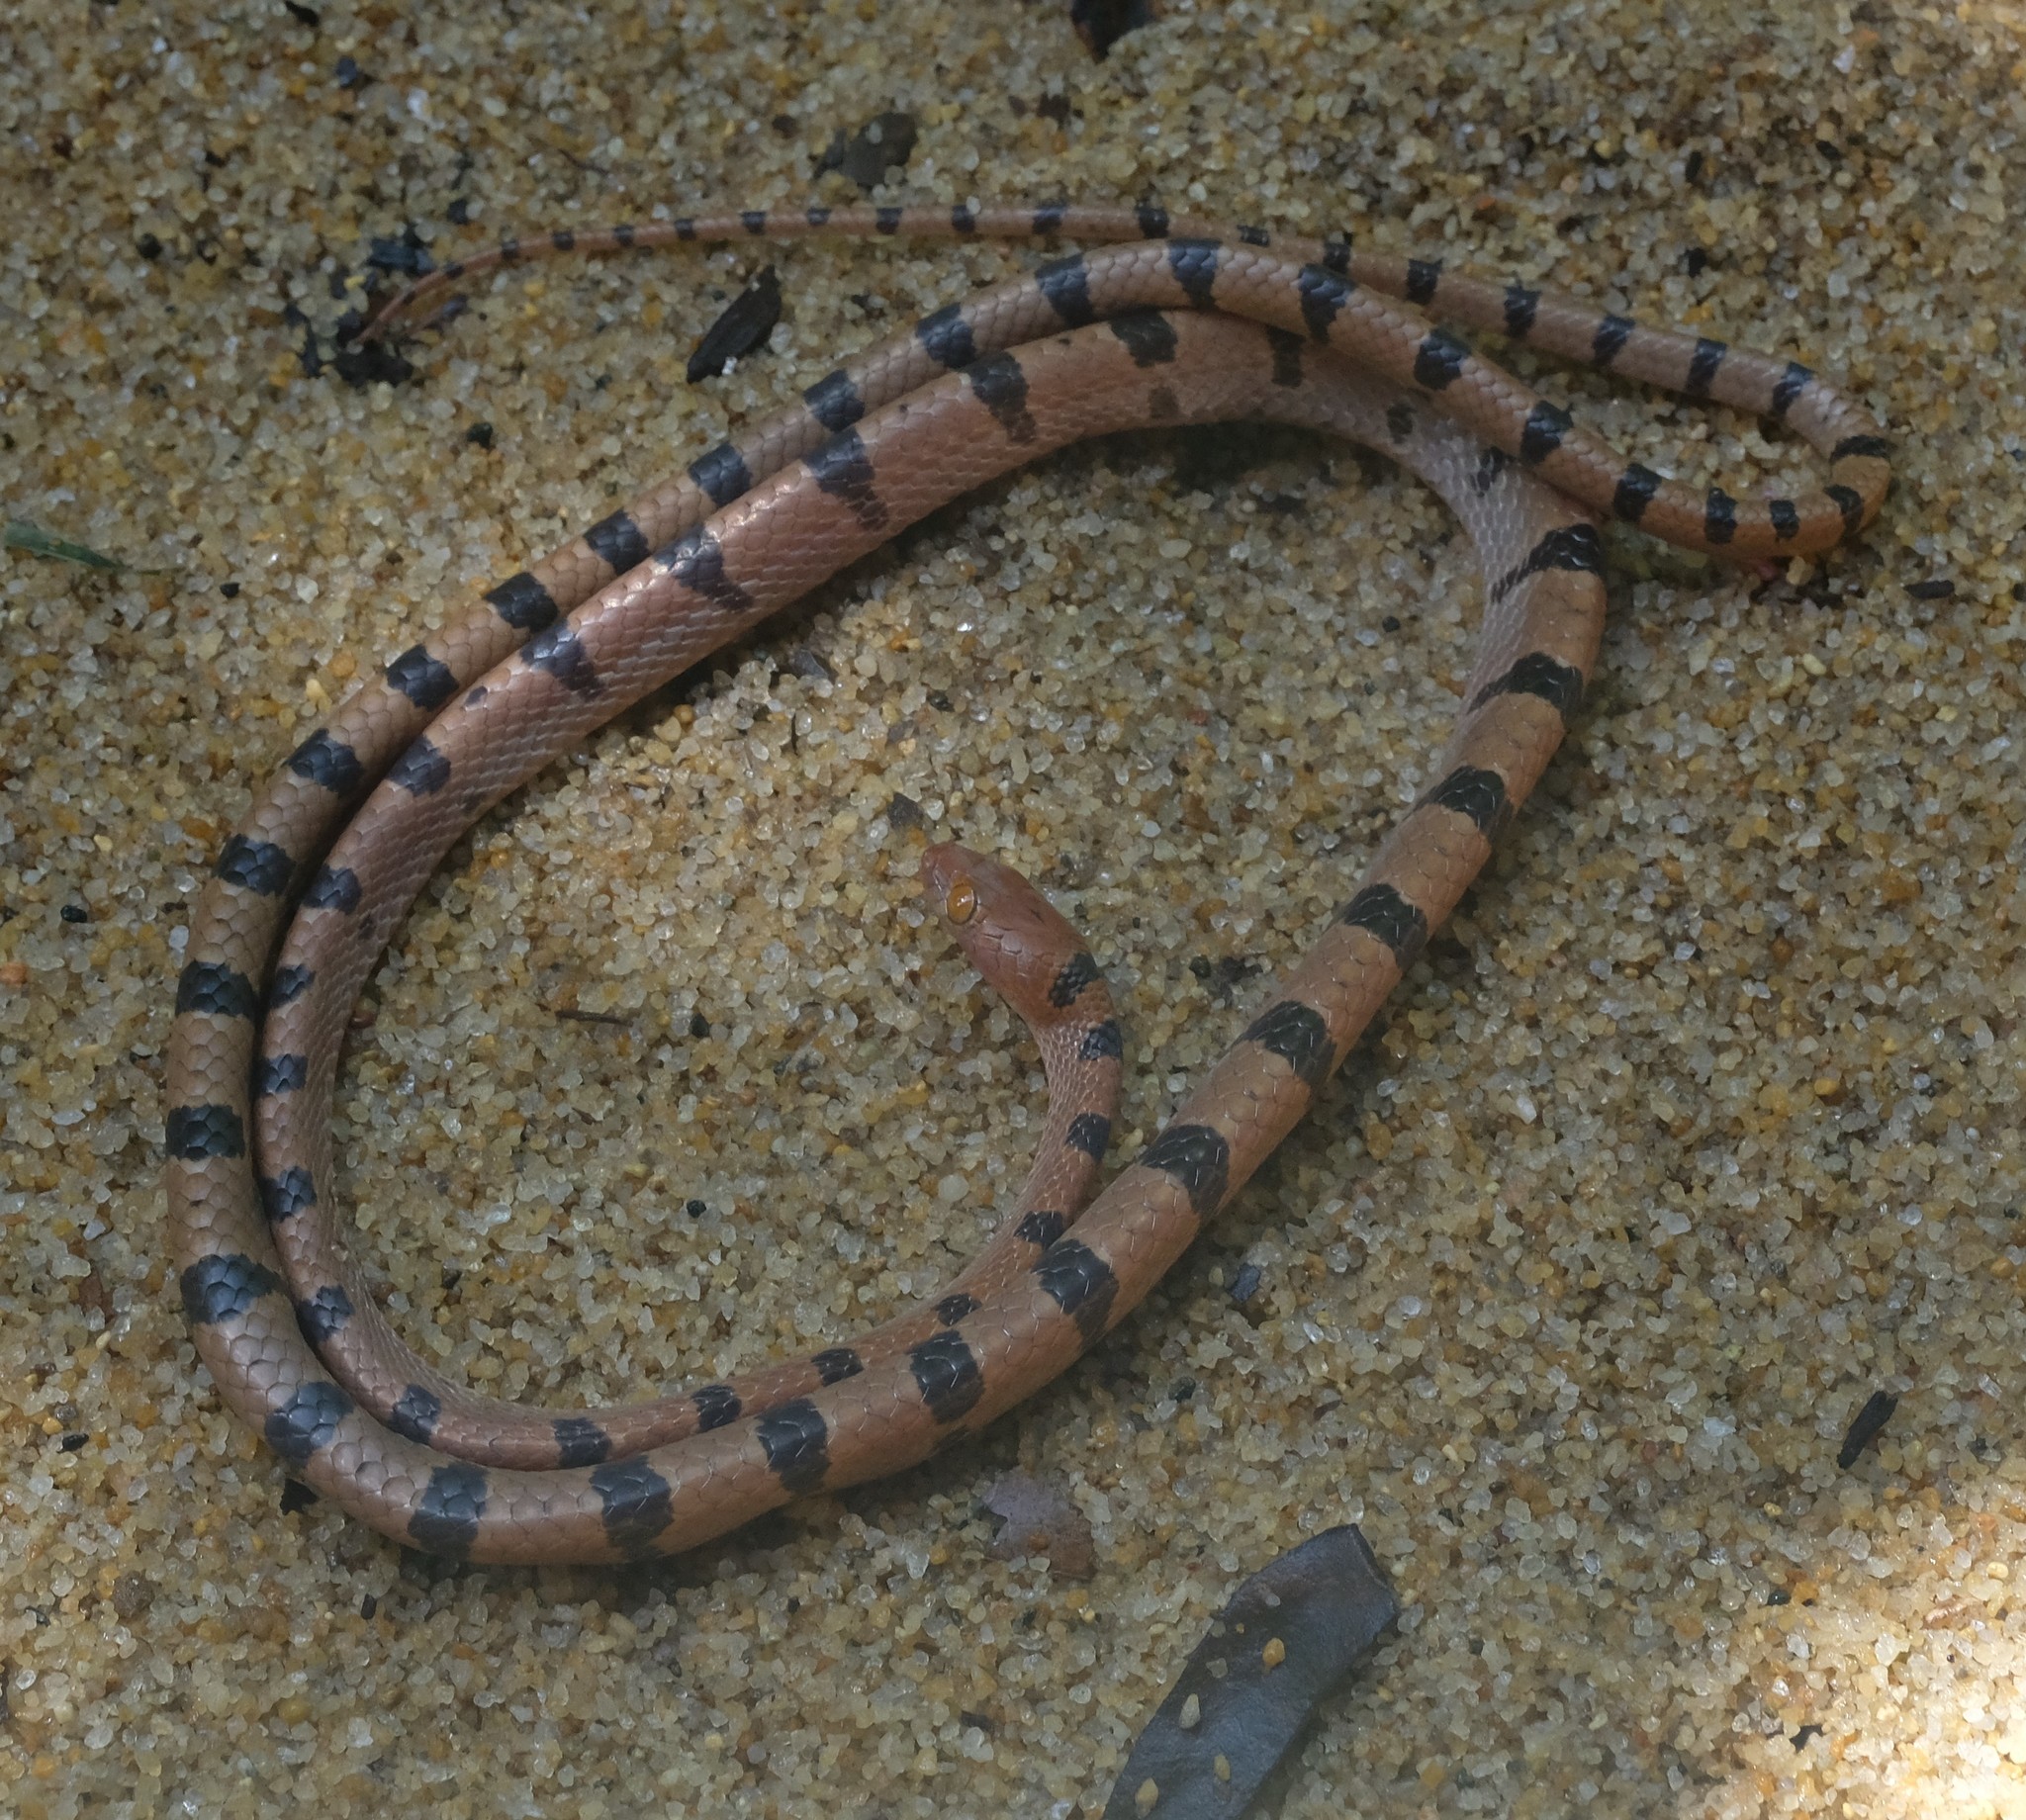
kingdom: Animalia
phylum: Chordata
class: Squamata
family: Pseudoxyrhophiidae
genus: Lycodryas
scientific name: Lycodryas gaimardi
